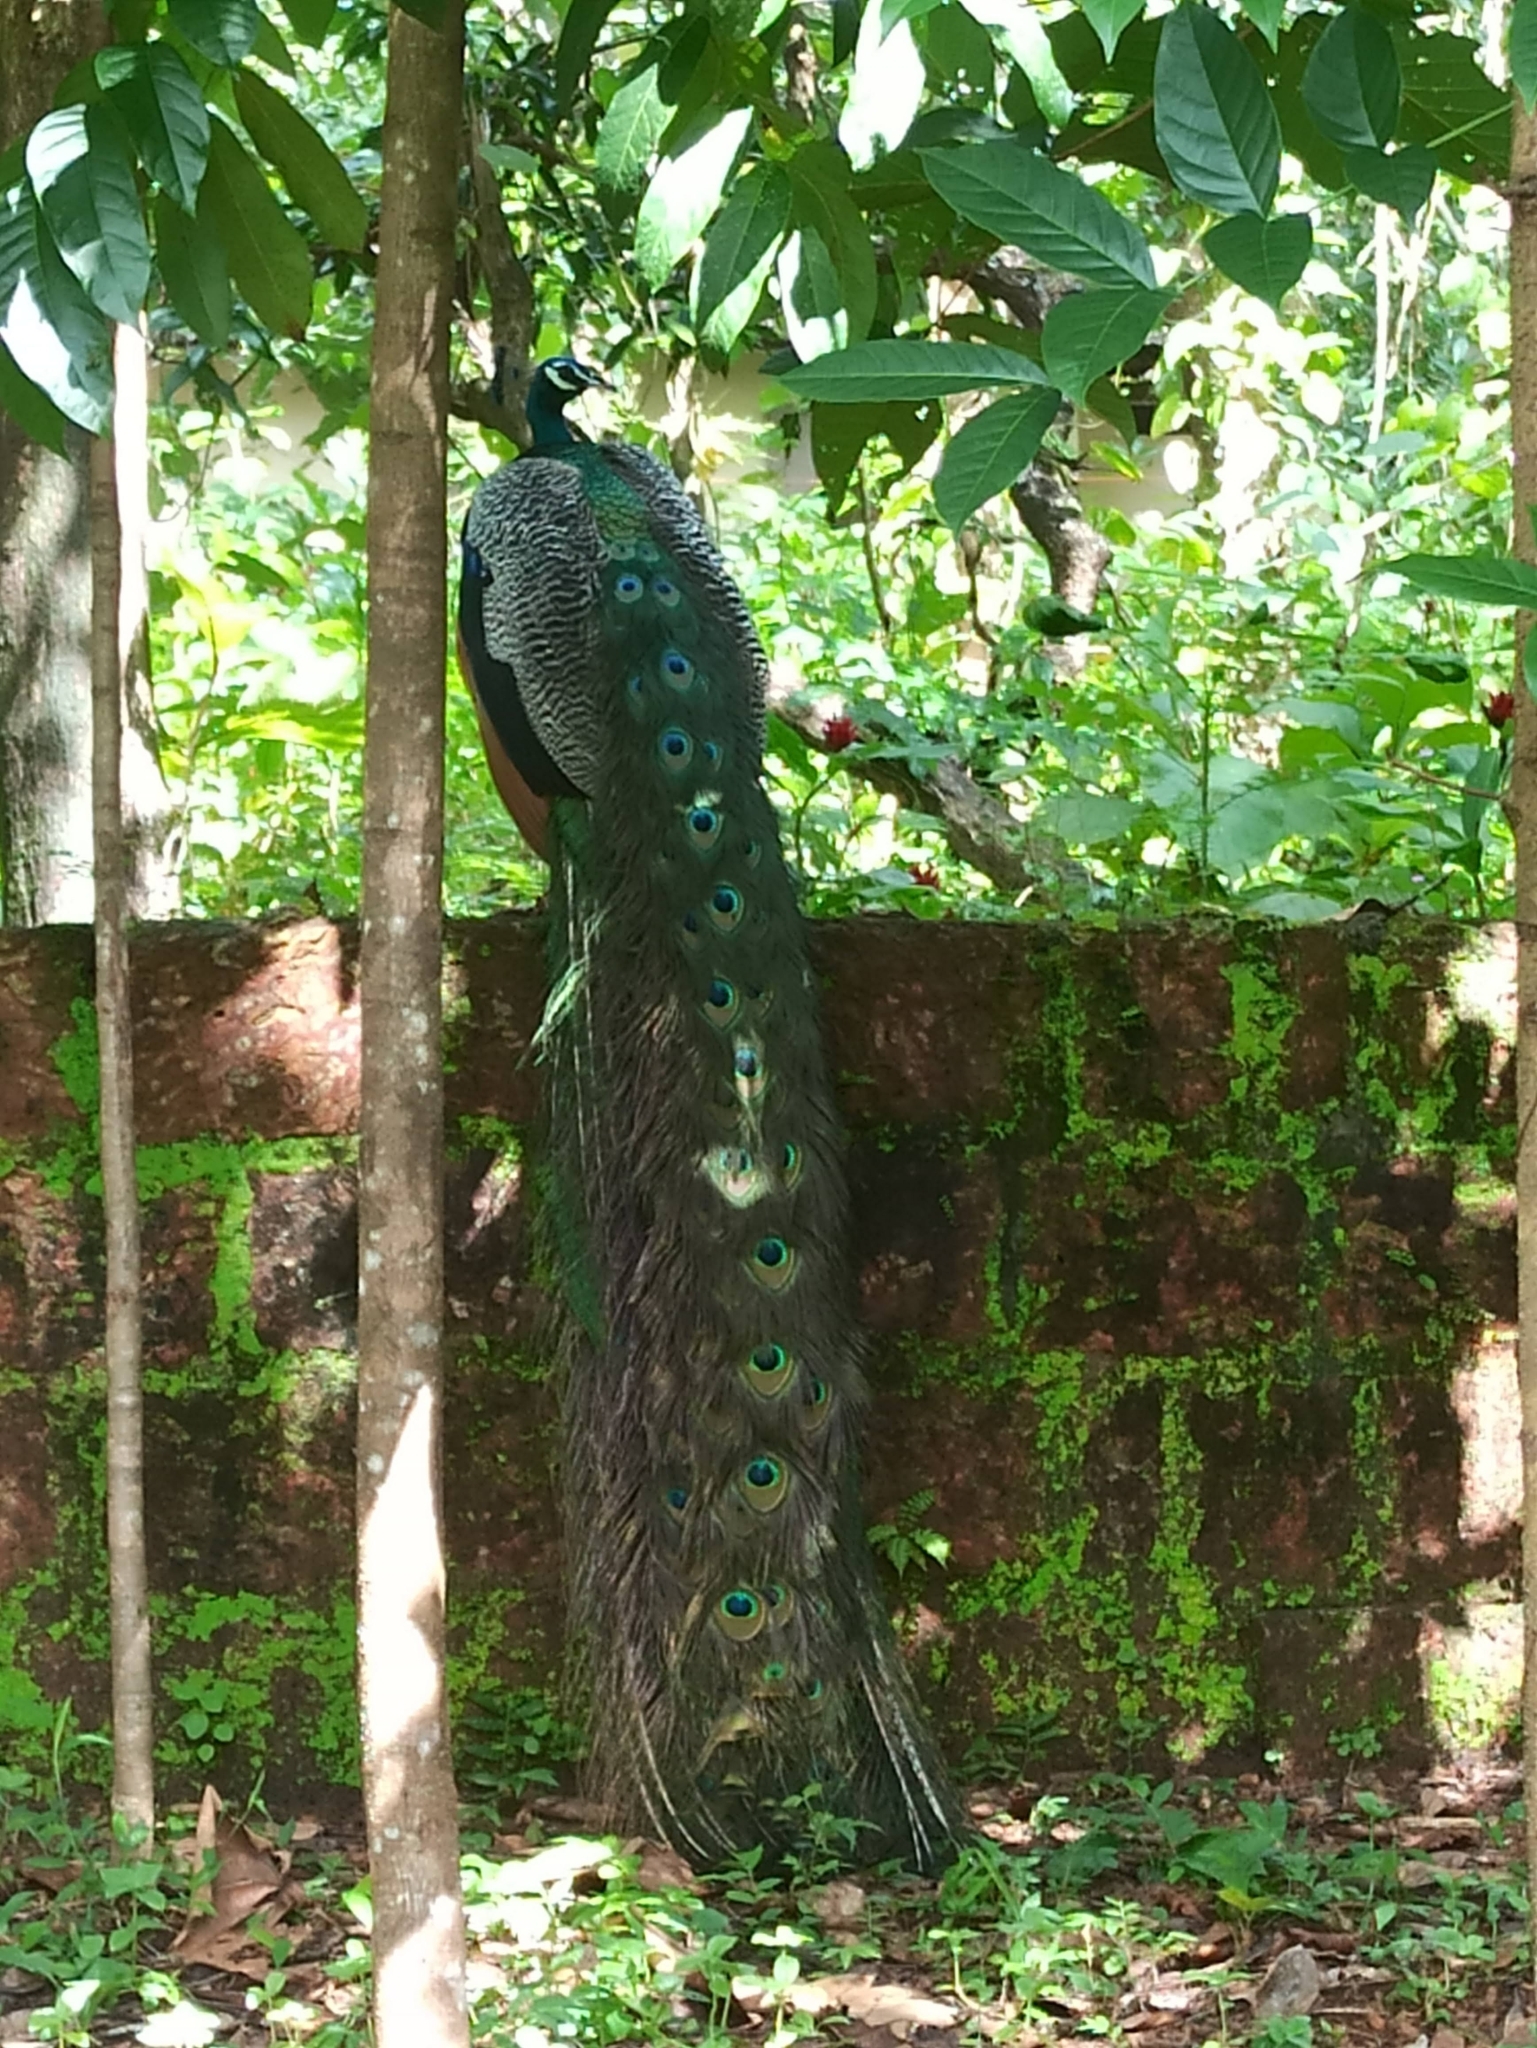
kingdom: Animalia
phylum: Chordata
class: Aves
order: Galliformes
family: Phasianidae
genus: Pavo
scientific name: Pavo cristatus
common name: Indian peafowl
